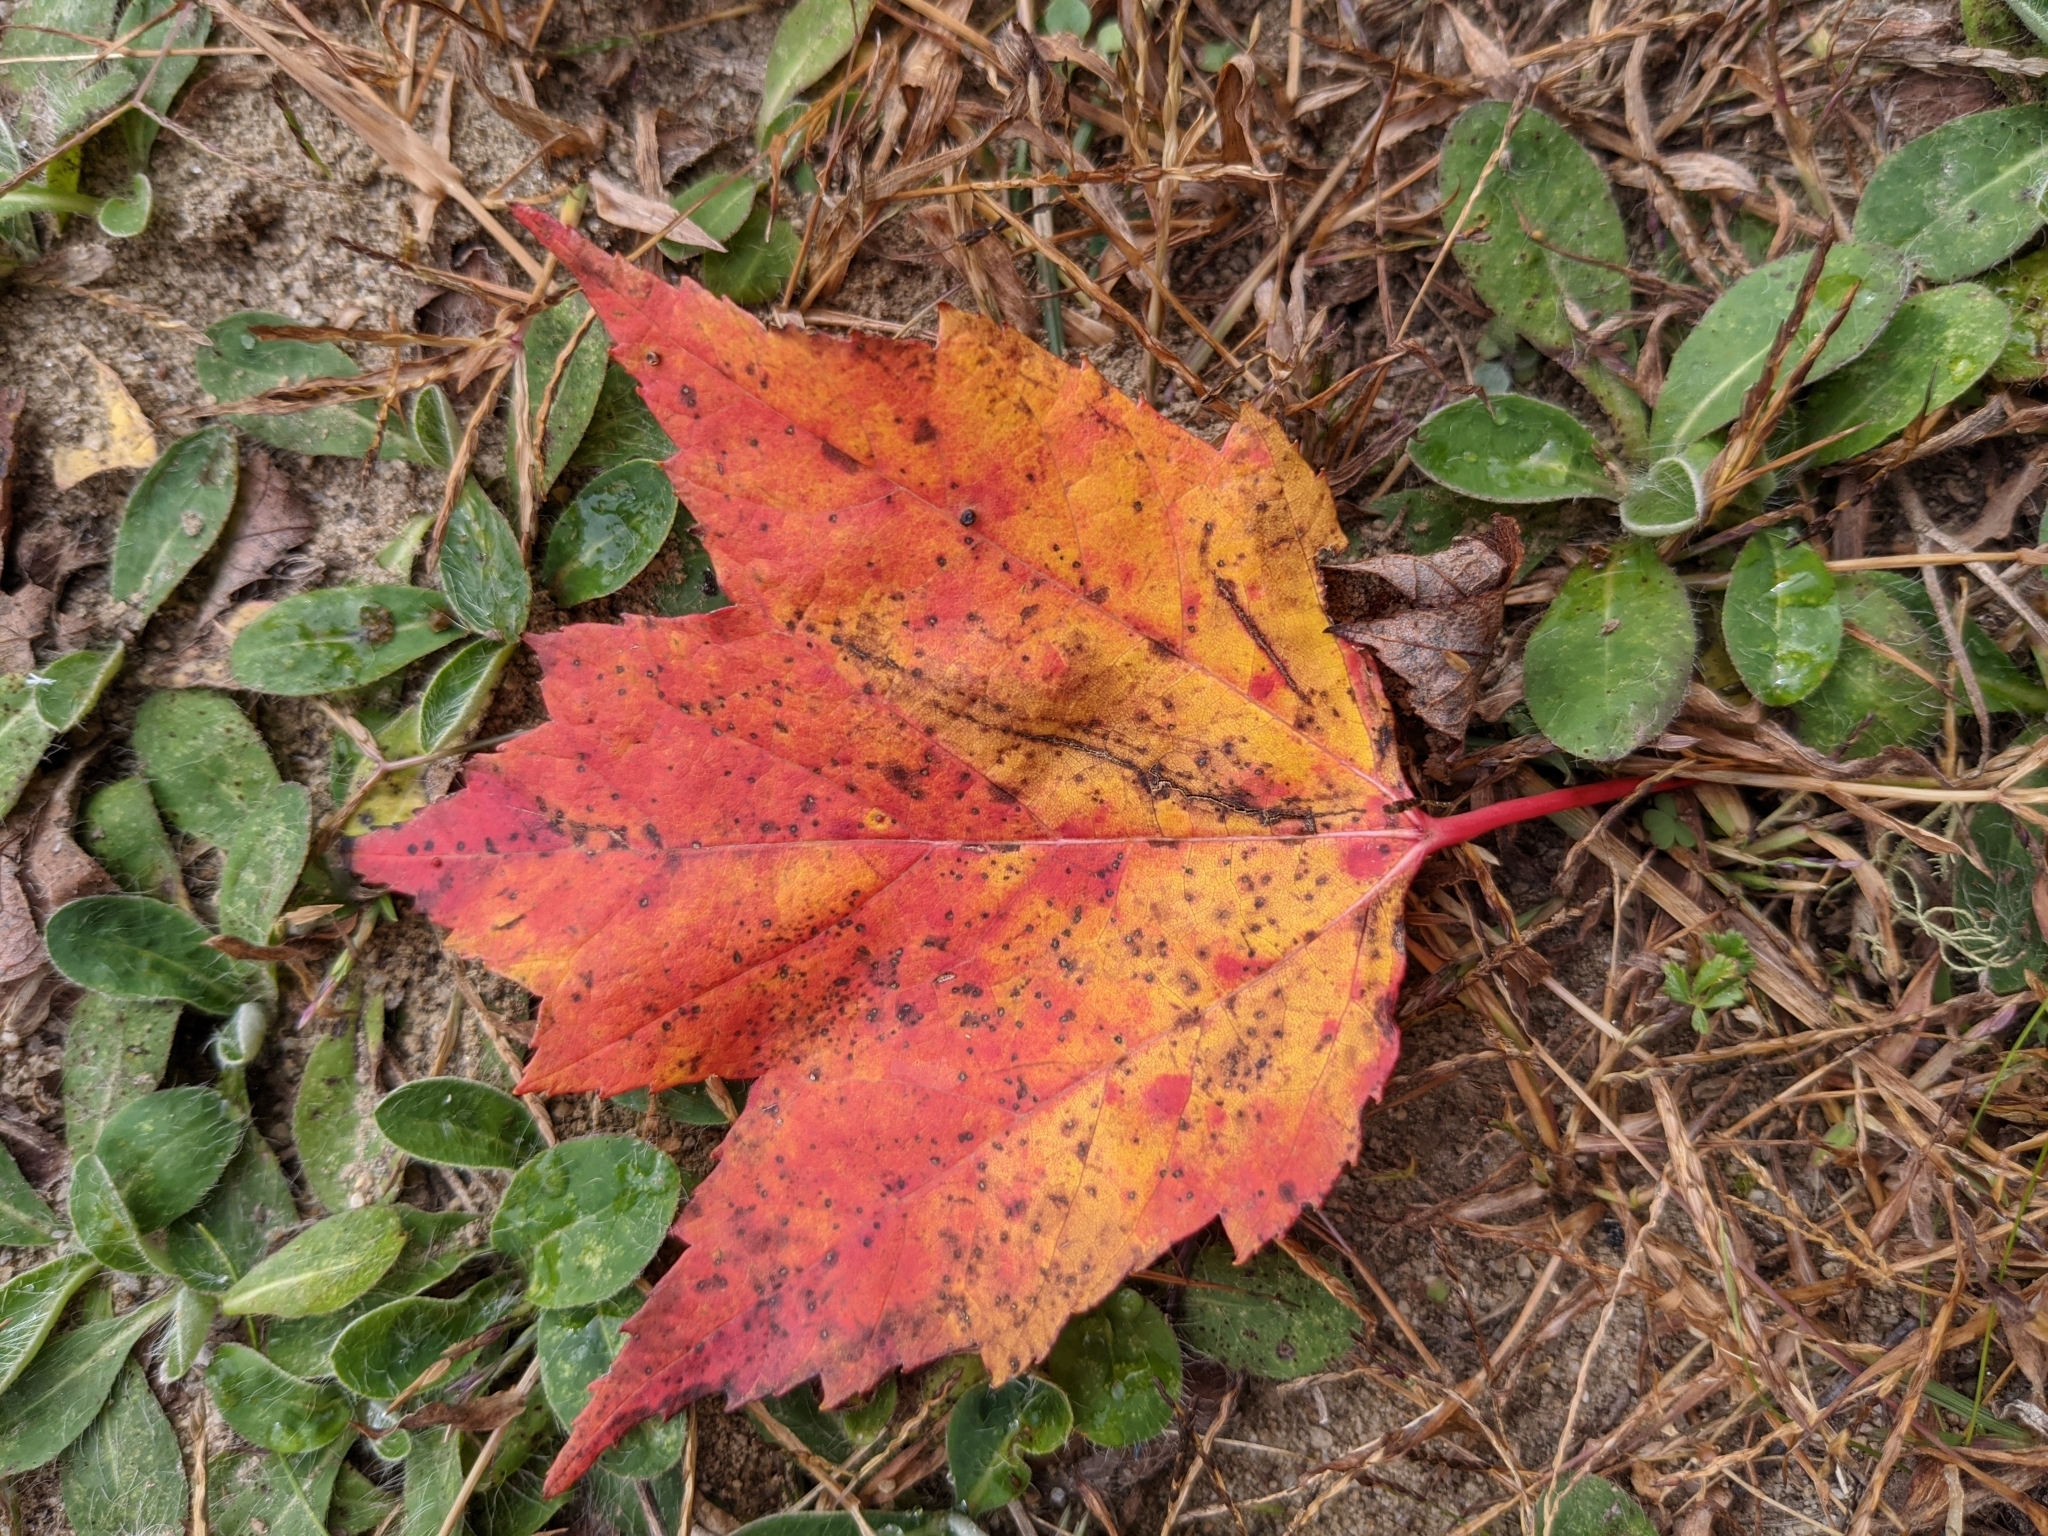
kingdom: Plantae
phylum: Tracheophyta
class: Magnoliopsida
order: Sapindales
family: Sapindaceae
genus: Acer
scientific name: Acer rubrum
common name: Red maple
